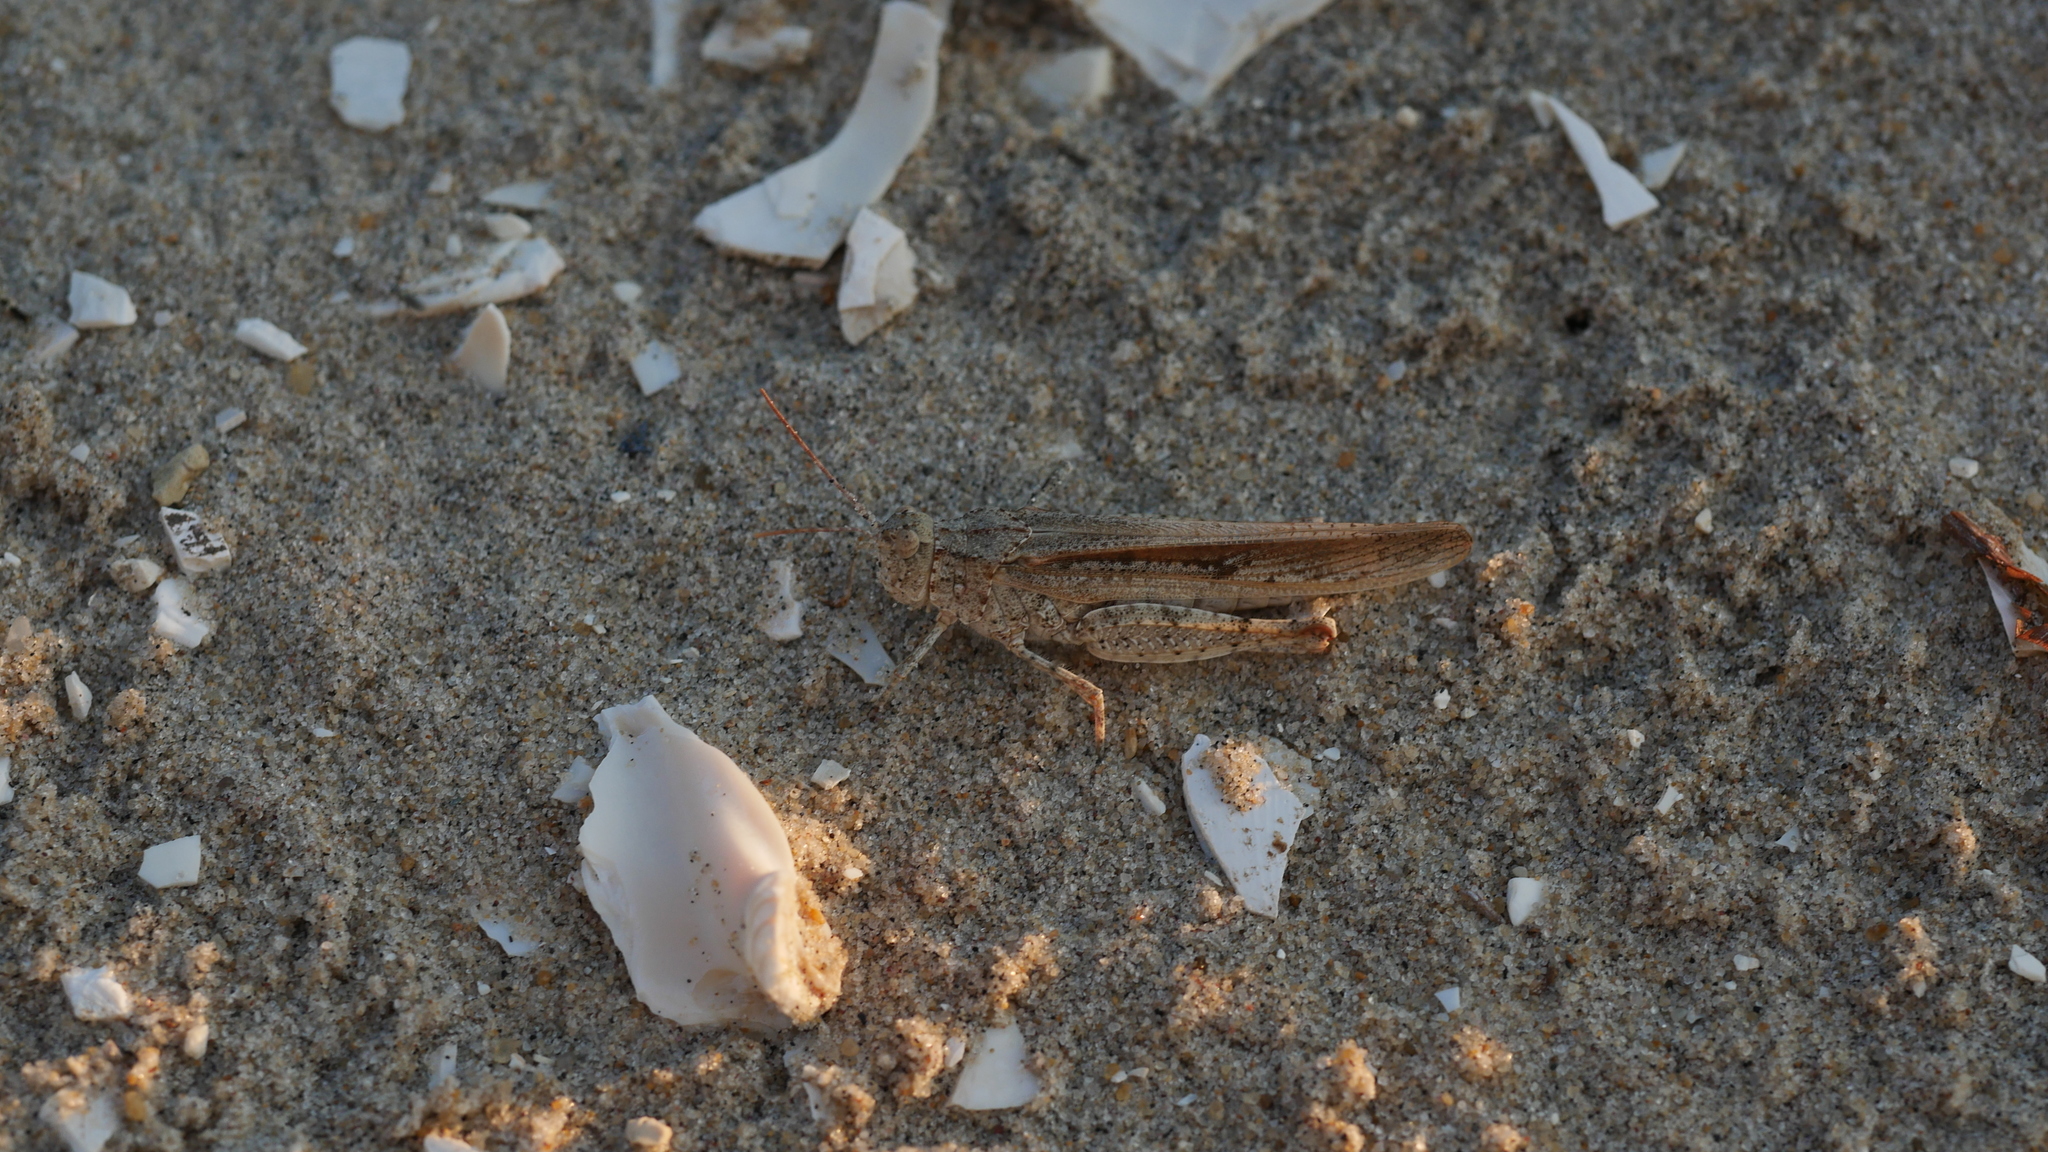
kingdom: Animalia
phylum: Arthropoda
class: Insecta
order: Orthoptera
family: Acrididae
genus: Trimerotropis
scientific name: Trimerotropis maritima
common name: Seaside locust
